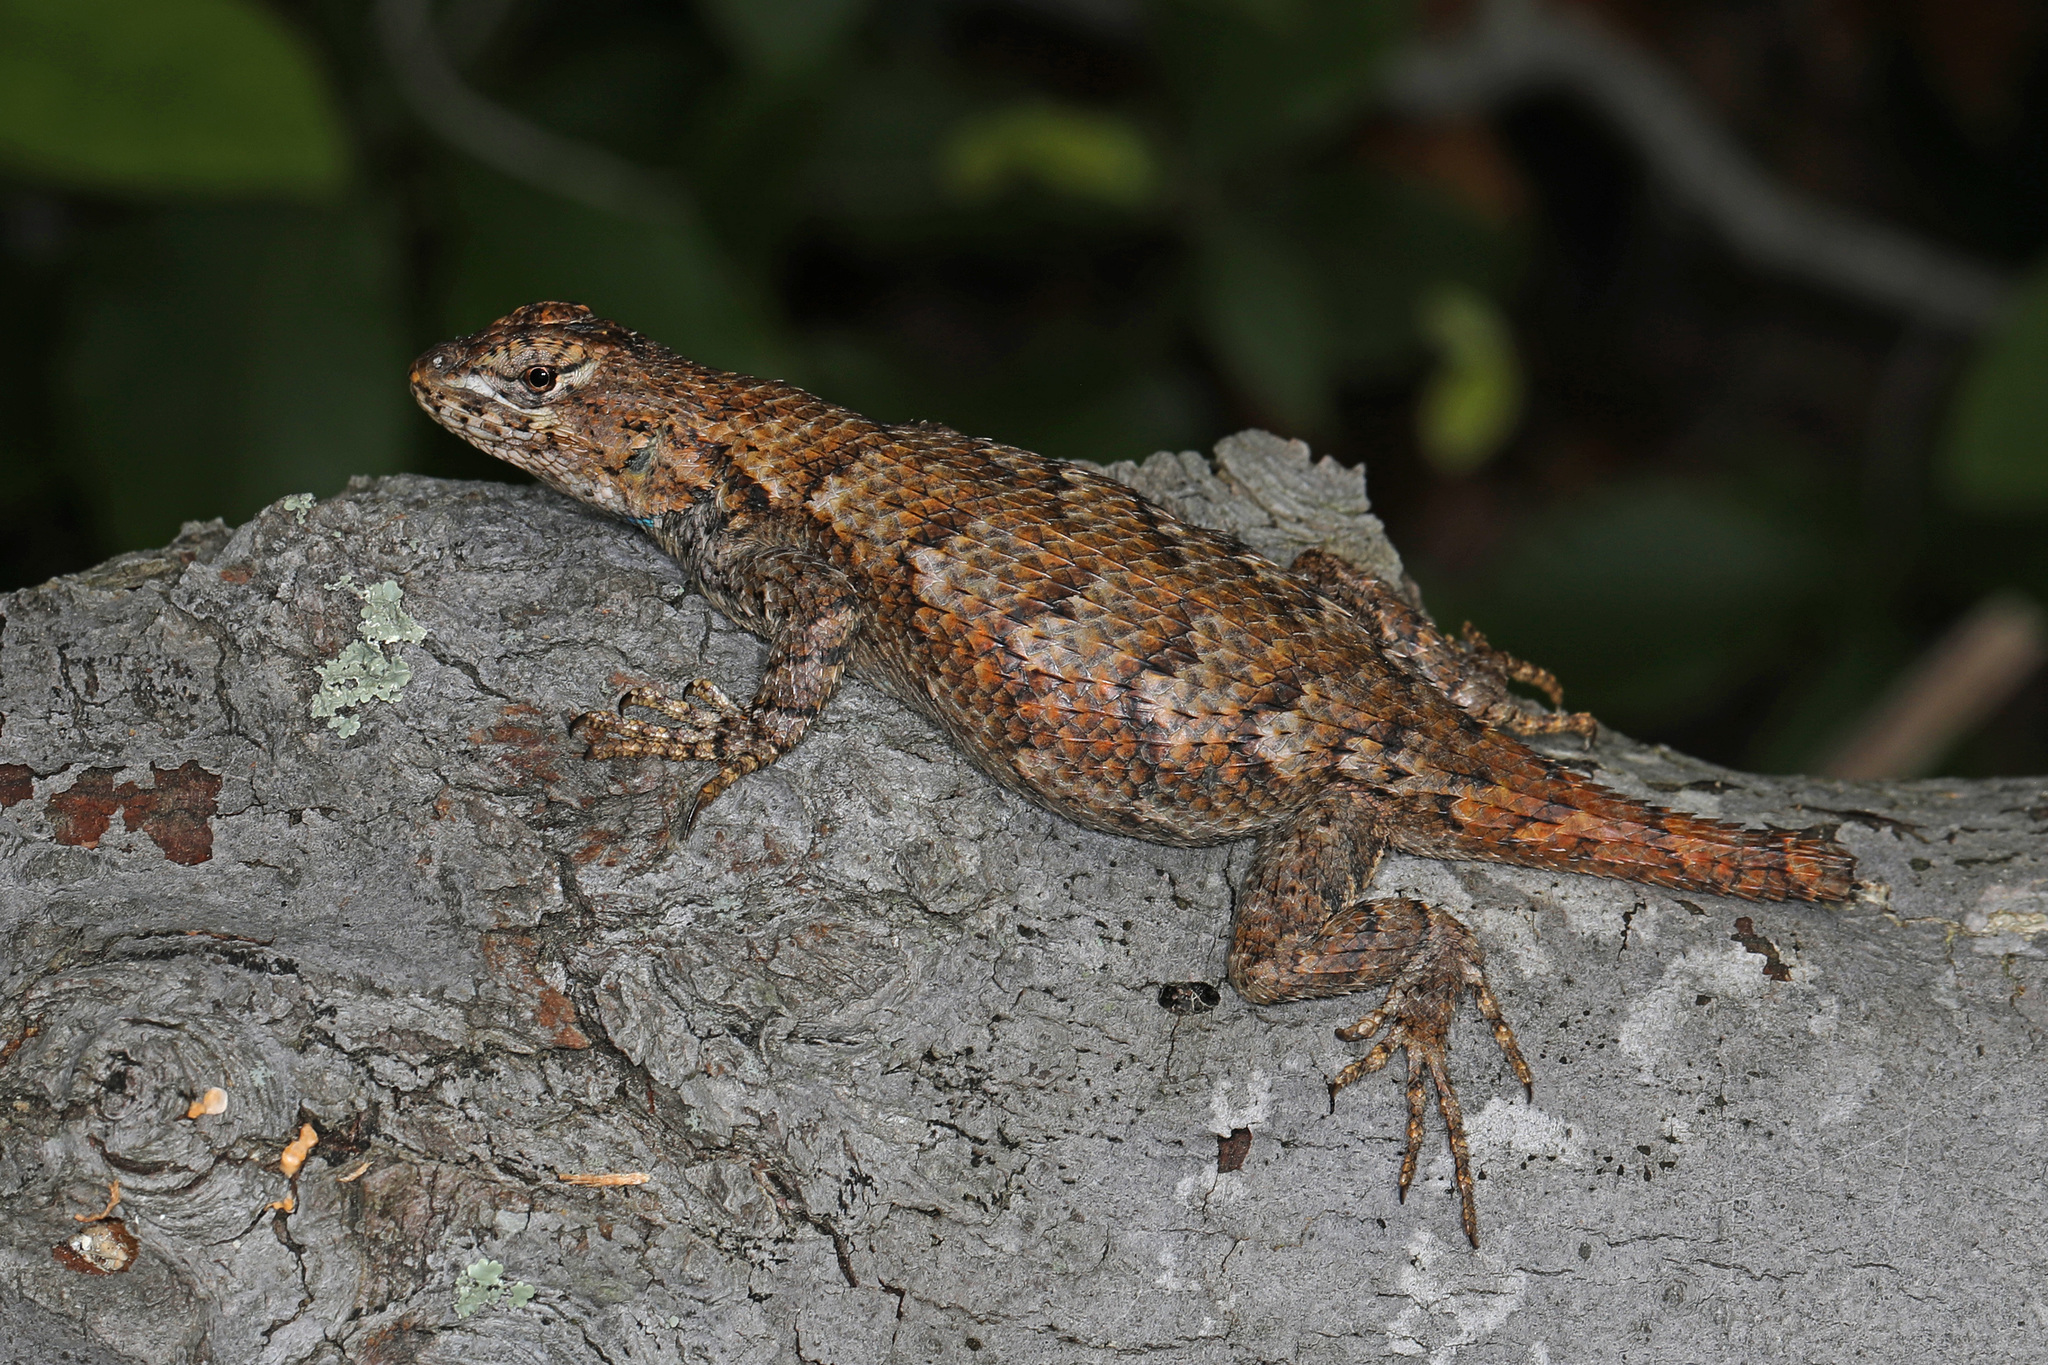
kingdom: Animalia
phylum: Chordata
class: Squamata
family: Phrynosomatidae
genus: Sceloporus
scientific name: Sceloporus undulatus
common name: Eastern fence lizard
